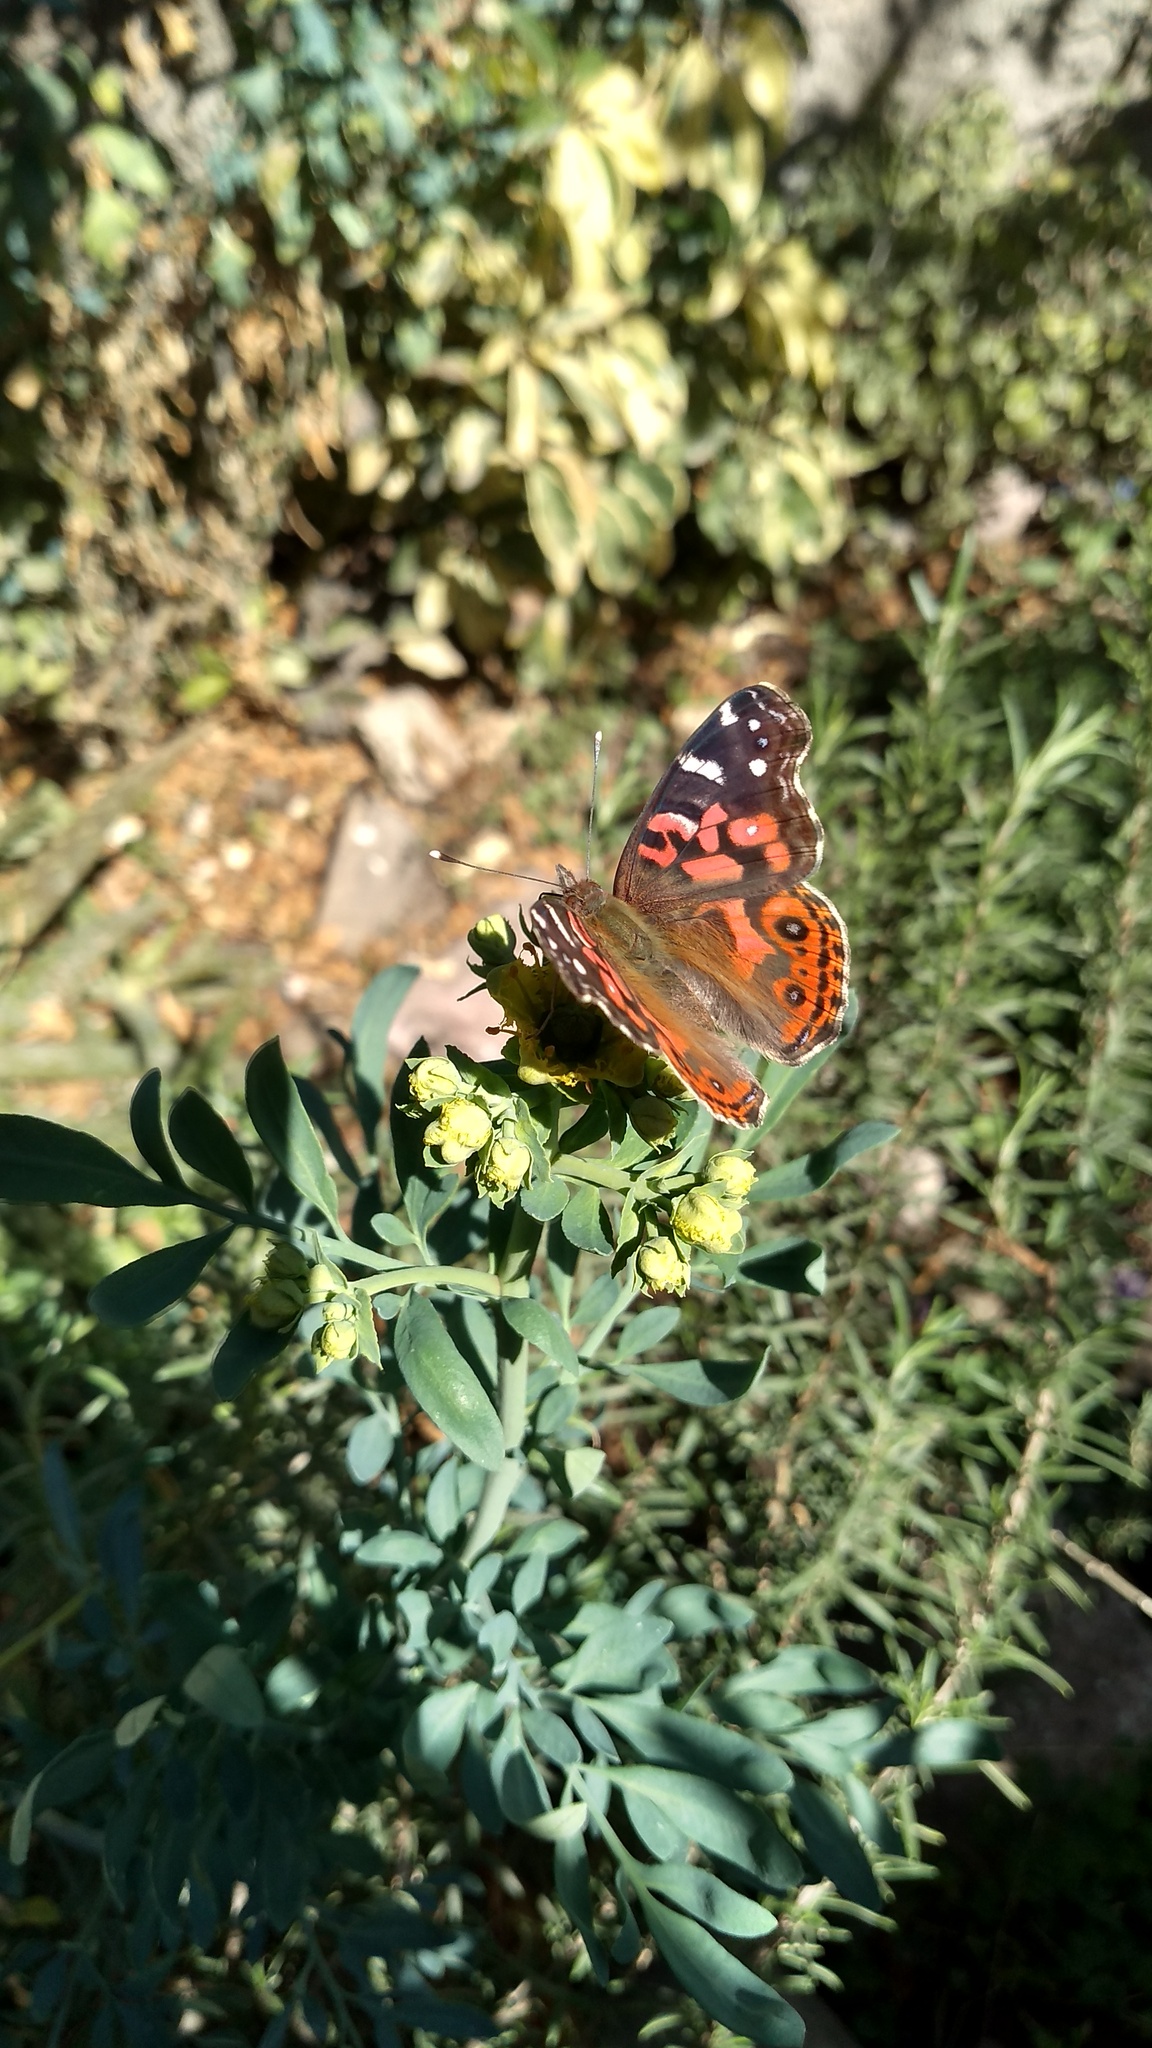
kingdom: Animalia
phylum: Arthropoda
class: Insecta
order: Lepidoptera
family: Nymphalidae
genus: Vanessa
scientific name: Vanessa braziliensis
